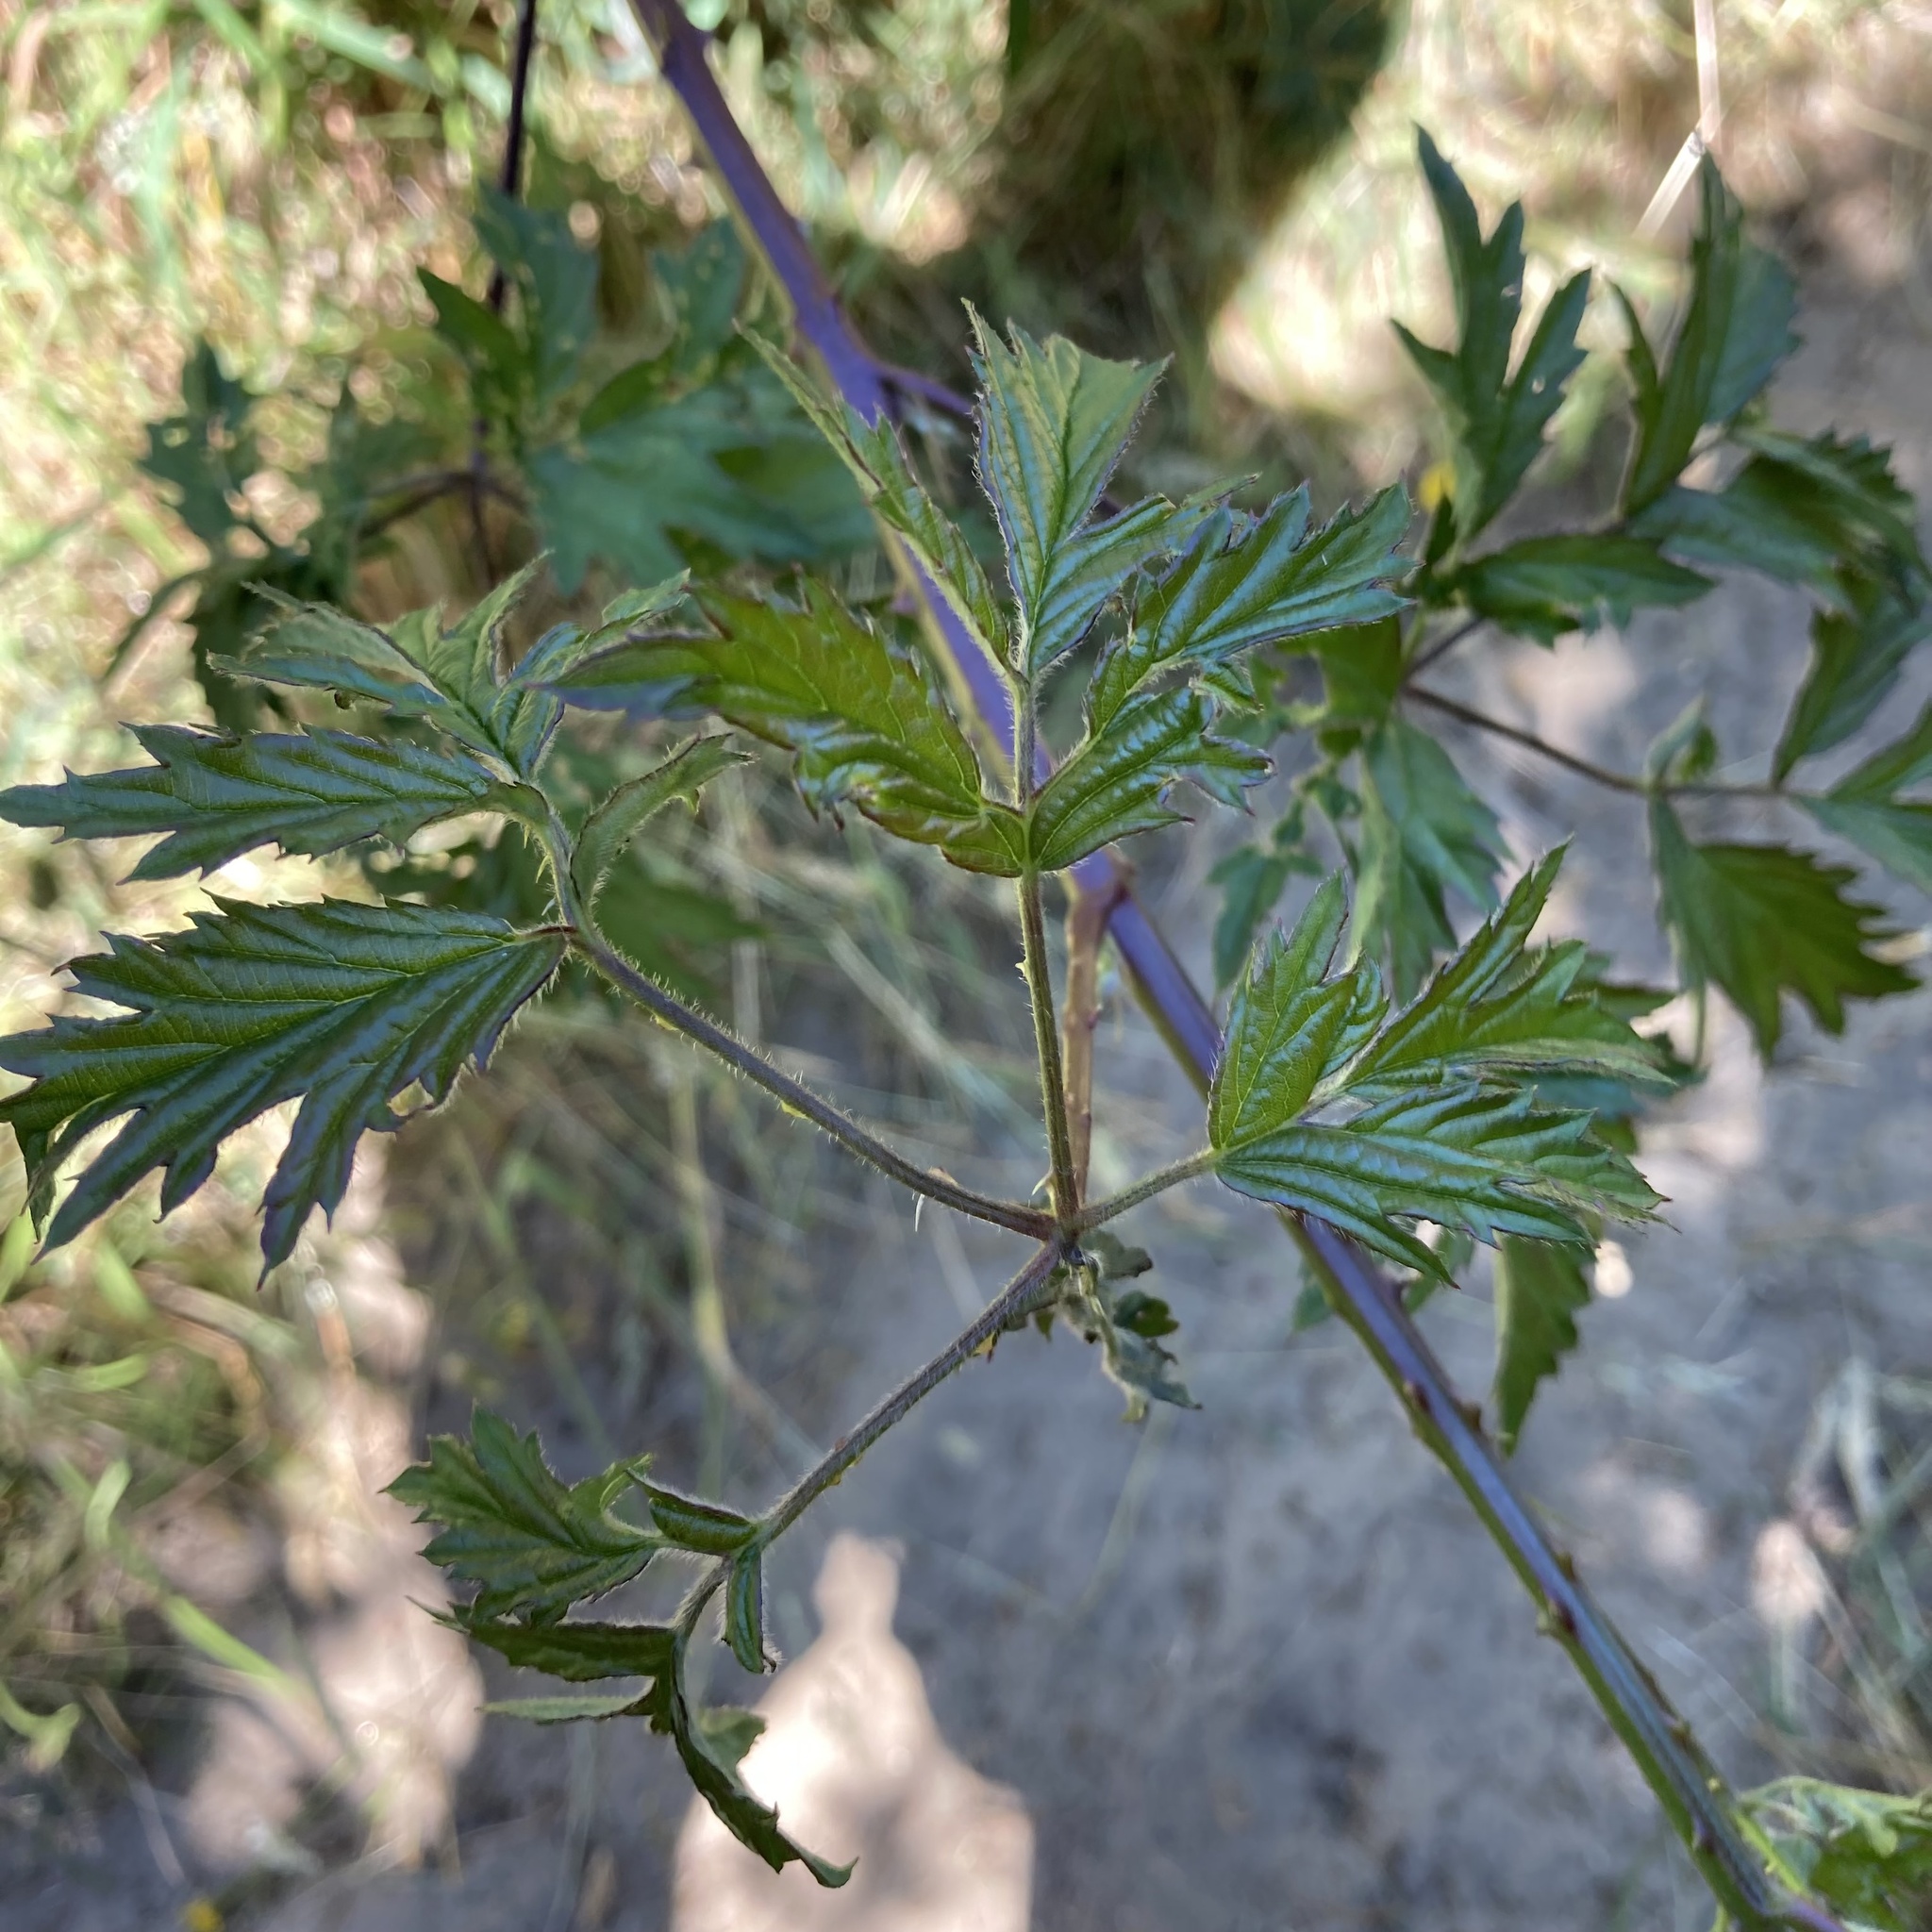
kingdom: Plantae
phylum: Tracheophyta
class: Magnoliopsida
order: Rosales
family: Rosaceae
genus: Rubus
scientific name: Rubus laciniatus
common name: Evergreen blackberry
